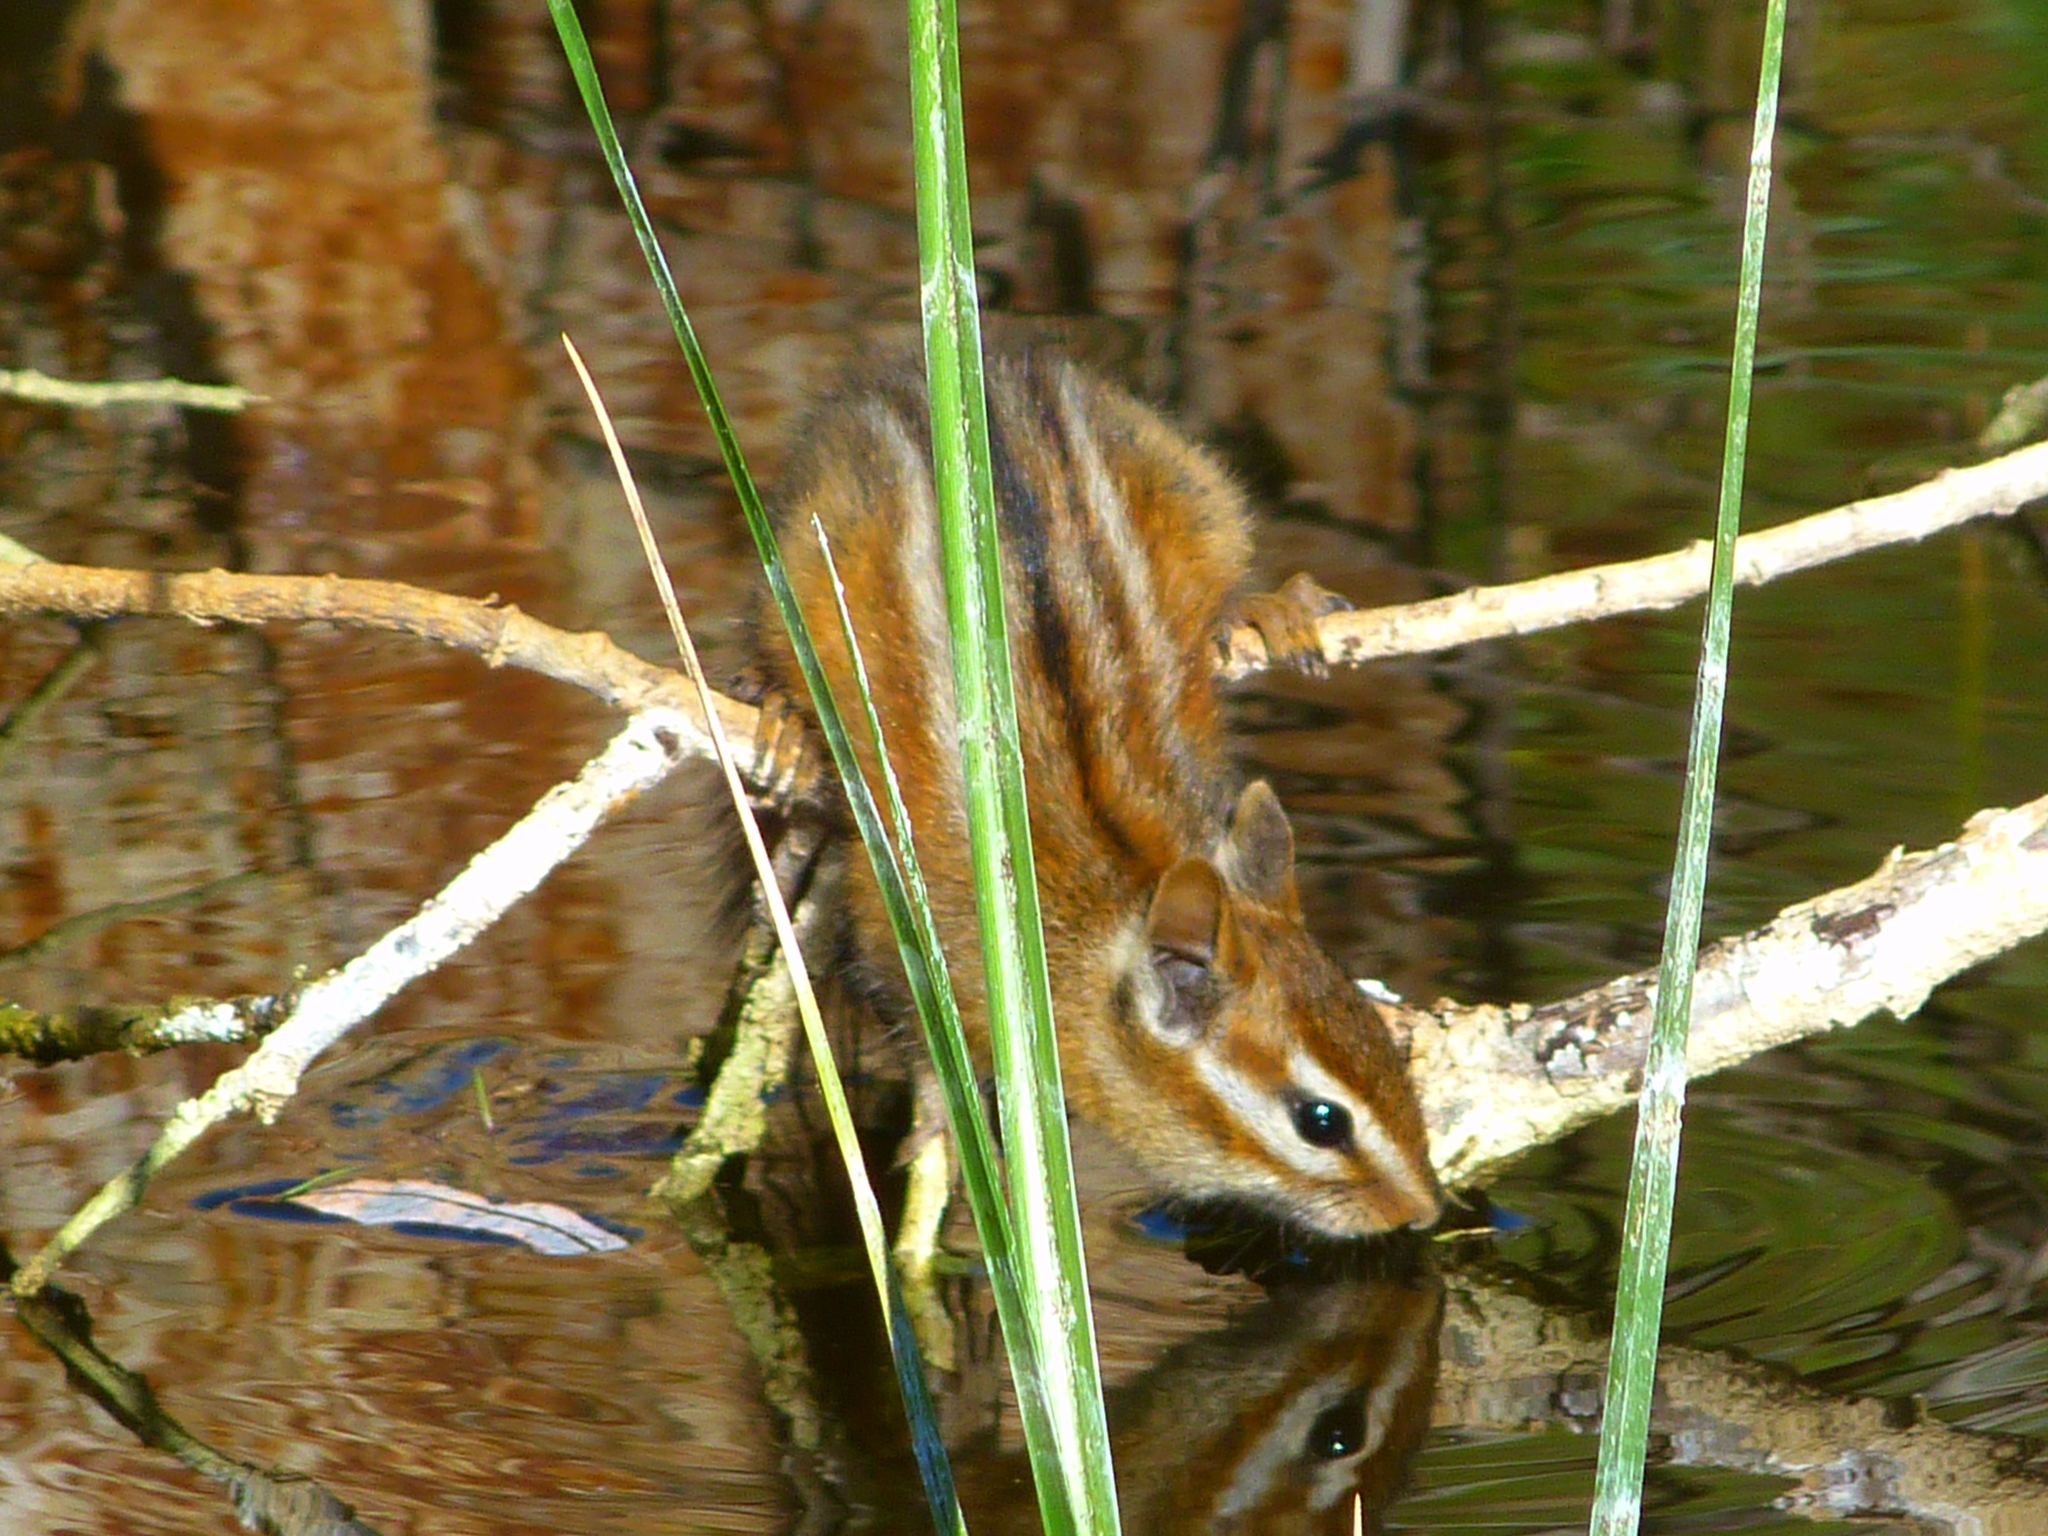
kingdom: Animalia
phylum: Chordata
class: Mammalia
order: Rodentia
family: Sciuridae
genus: Tamias
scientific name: Tamias merriami
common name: Merriam's chipmunk
